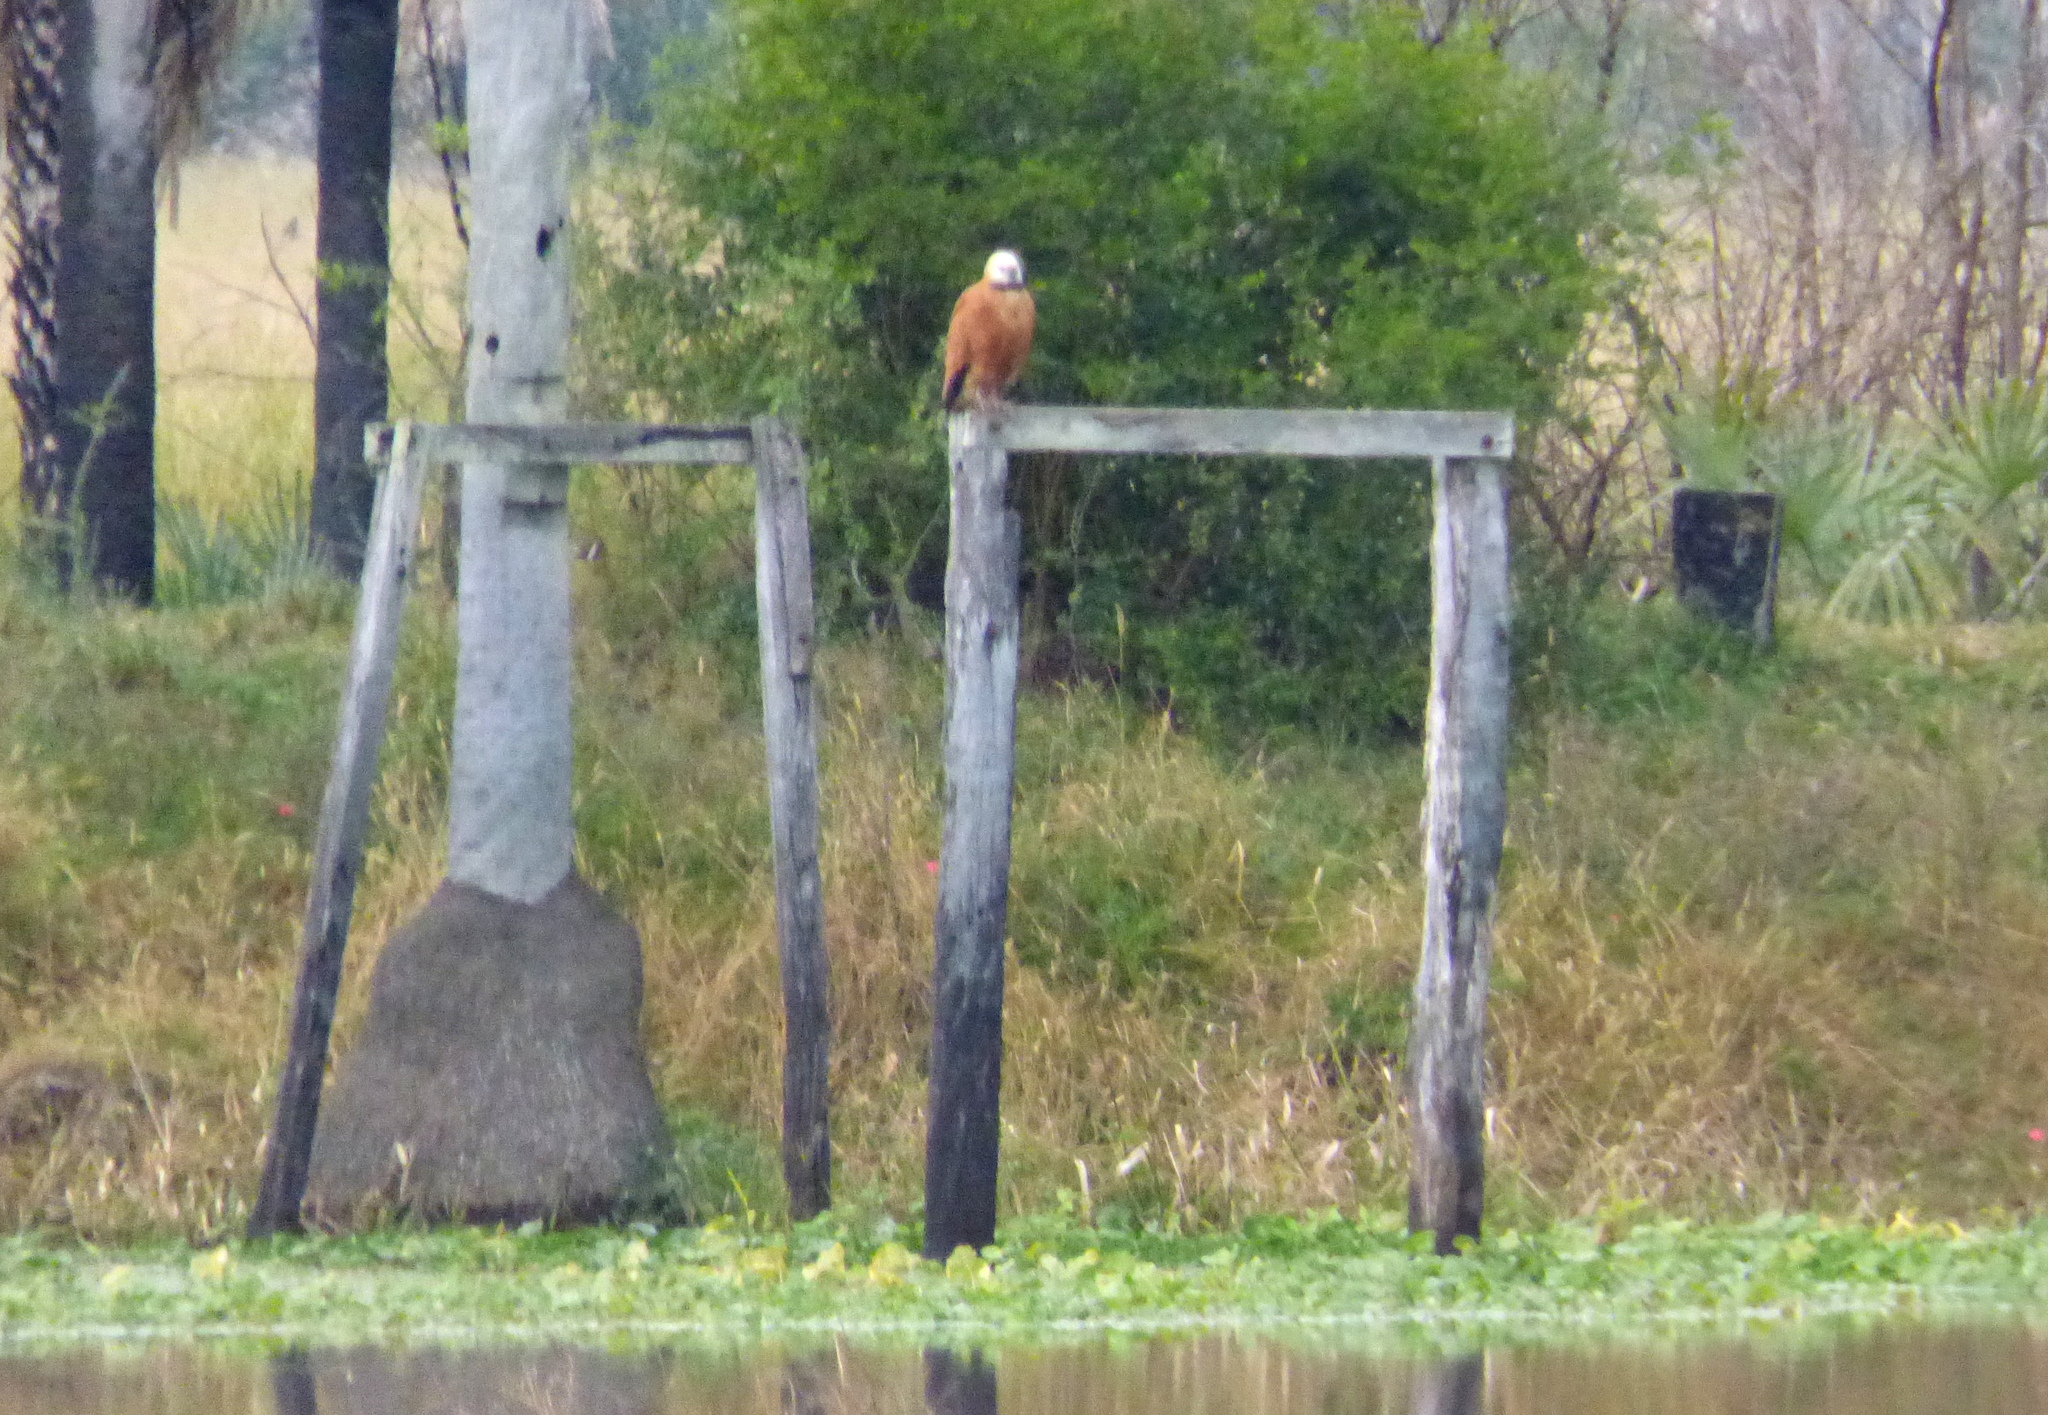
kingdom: Animalia
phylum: Chordata
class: Aves
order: Accipitriformes
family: Accipitridae
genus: Busarellus
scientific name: Busarellus nigricollis
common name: Black-collared hawk
